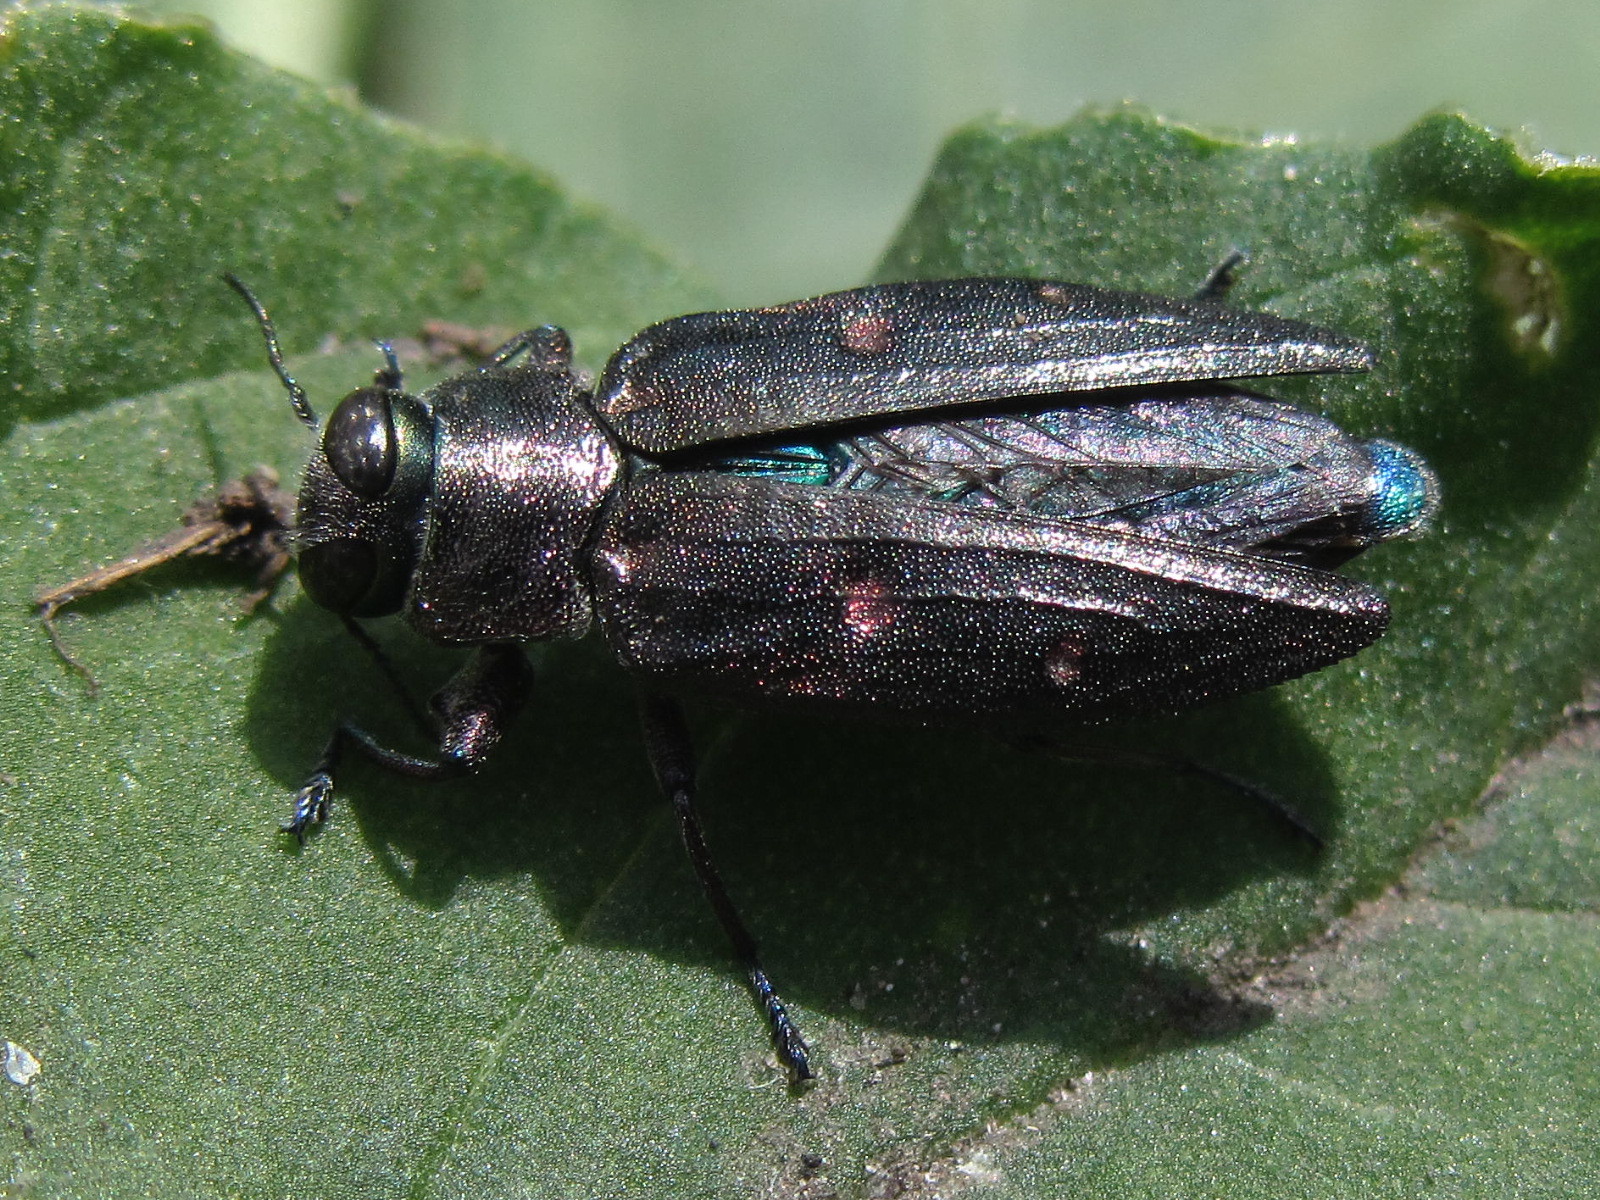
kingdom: Animalia
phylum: Arthropoda
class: Insecta
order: Coleoptera
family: Buprestidae
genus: Chrysobothris
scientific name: Chrysobothris affinis
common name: Beetle
